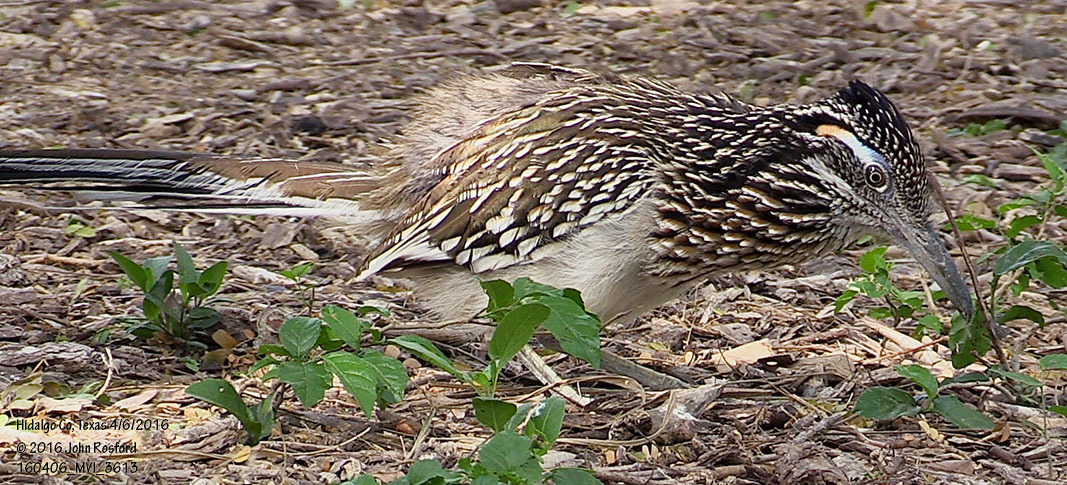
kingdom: Animalia
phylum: Chordata
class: Aves
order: Cuculiformes
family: Cuculidae
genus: Geococcyx
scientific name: Geococcyx californianus
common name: Greater roadrunner
